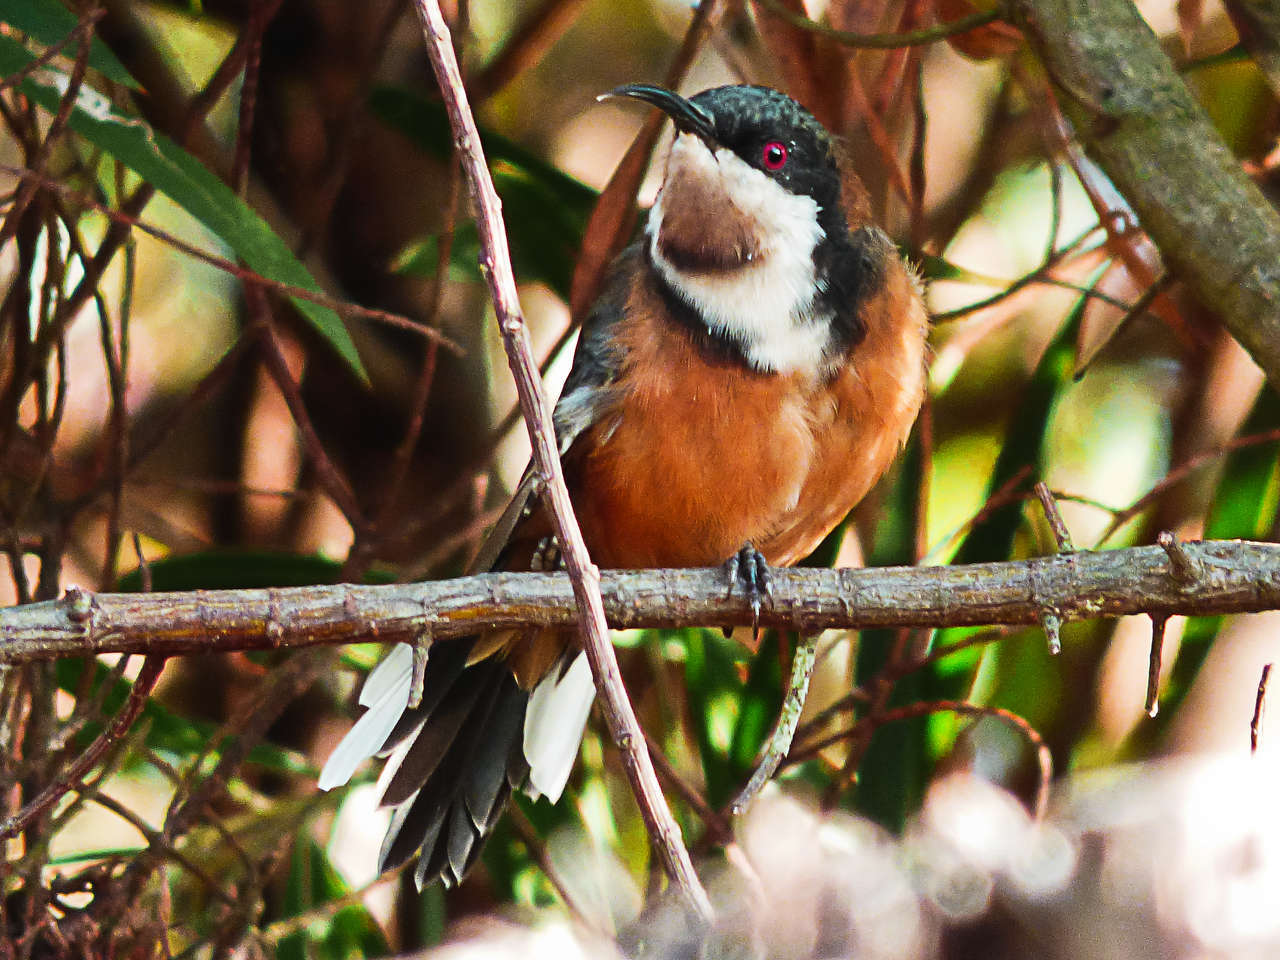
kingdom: Animalia
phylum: Chordata
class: Aves
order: Passeriformes
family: Meliphagidae
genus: Acanthorhynchus
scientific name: Acanthorhynchus tenuirostris
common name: Eastern spinebill
